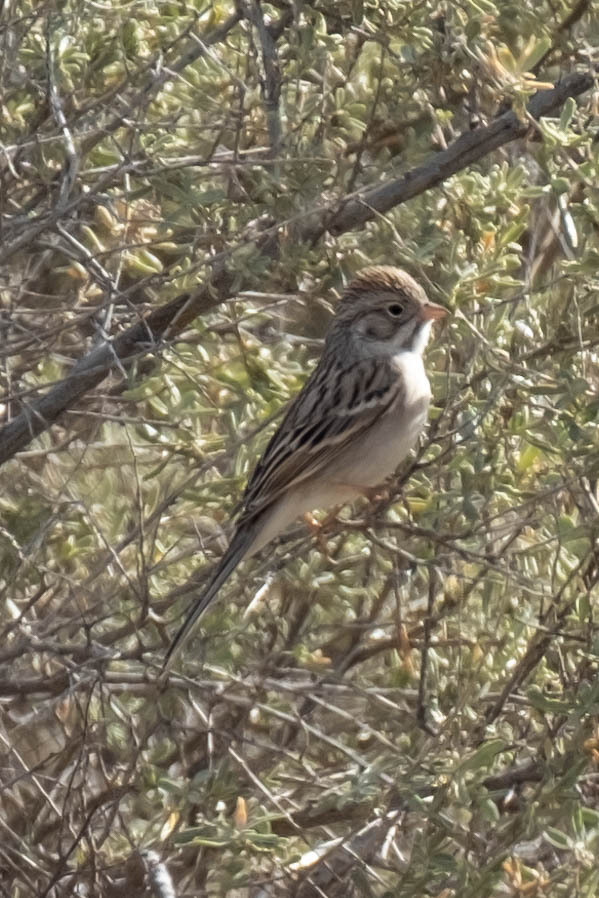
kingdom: Animalia
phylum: Chordata
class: Aves
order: Passeriformes
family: Passerellidae
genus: Spizella
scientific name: Spizella breweri
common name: Brewer's sparrow
